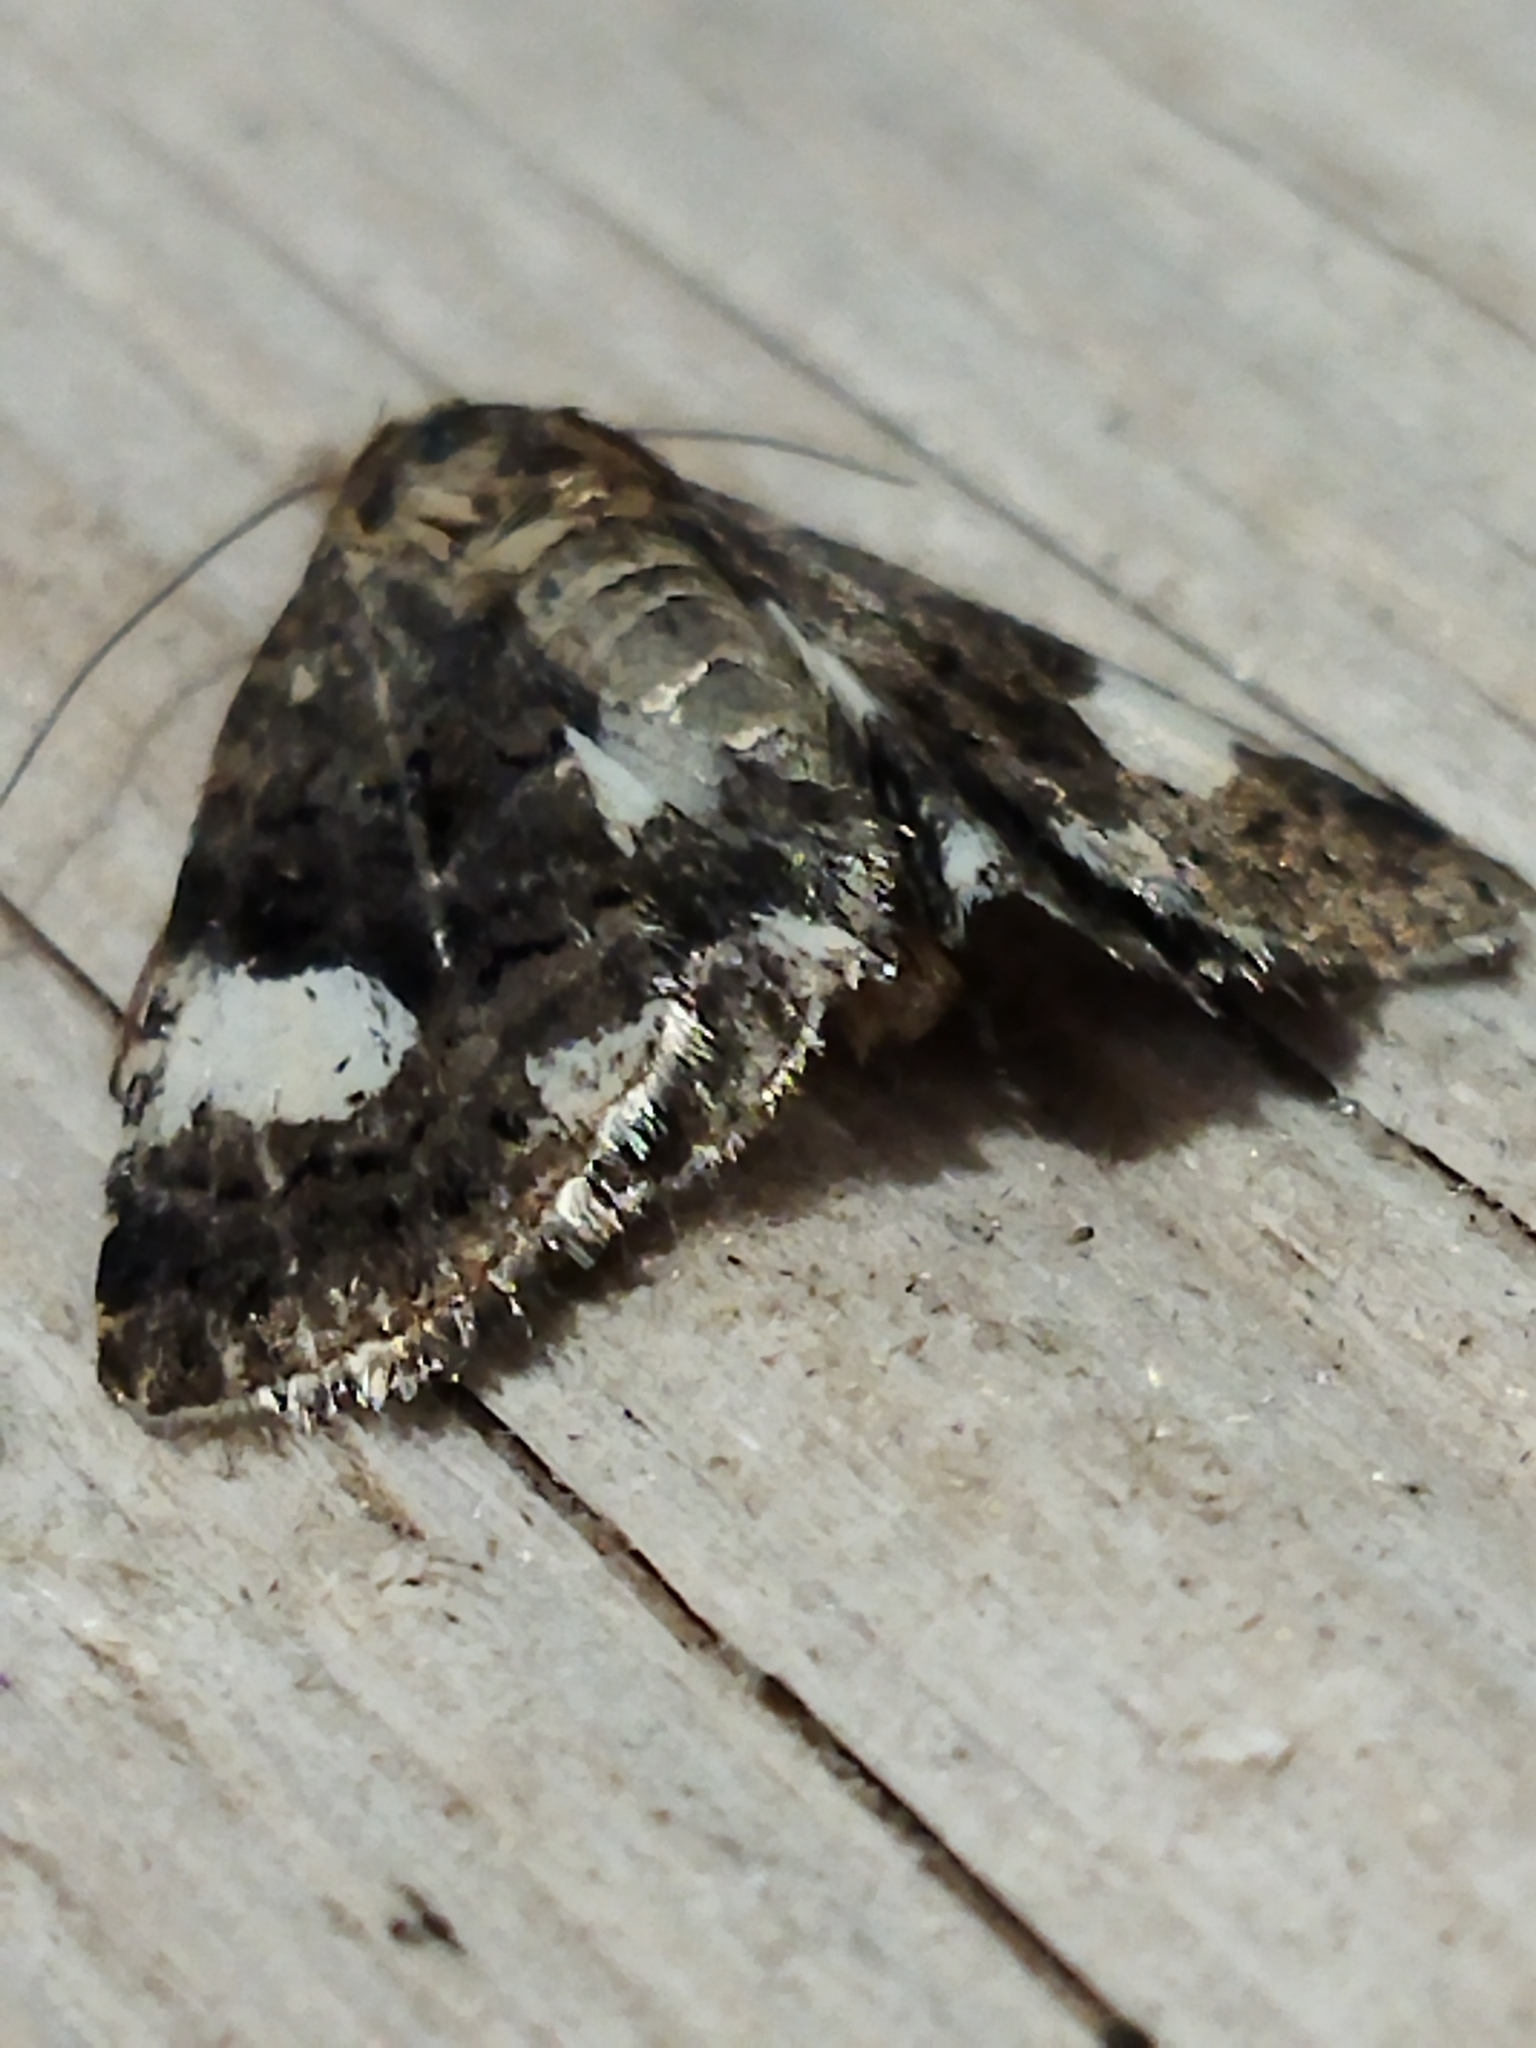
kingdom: Animalia
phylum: Arthropoda
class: Insecta
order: Lepidoptera
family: Erebidae
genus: Tyta
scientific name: Tyta luctuosa
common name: Four-spotted
